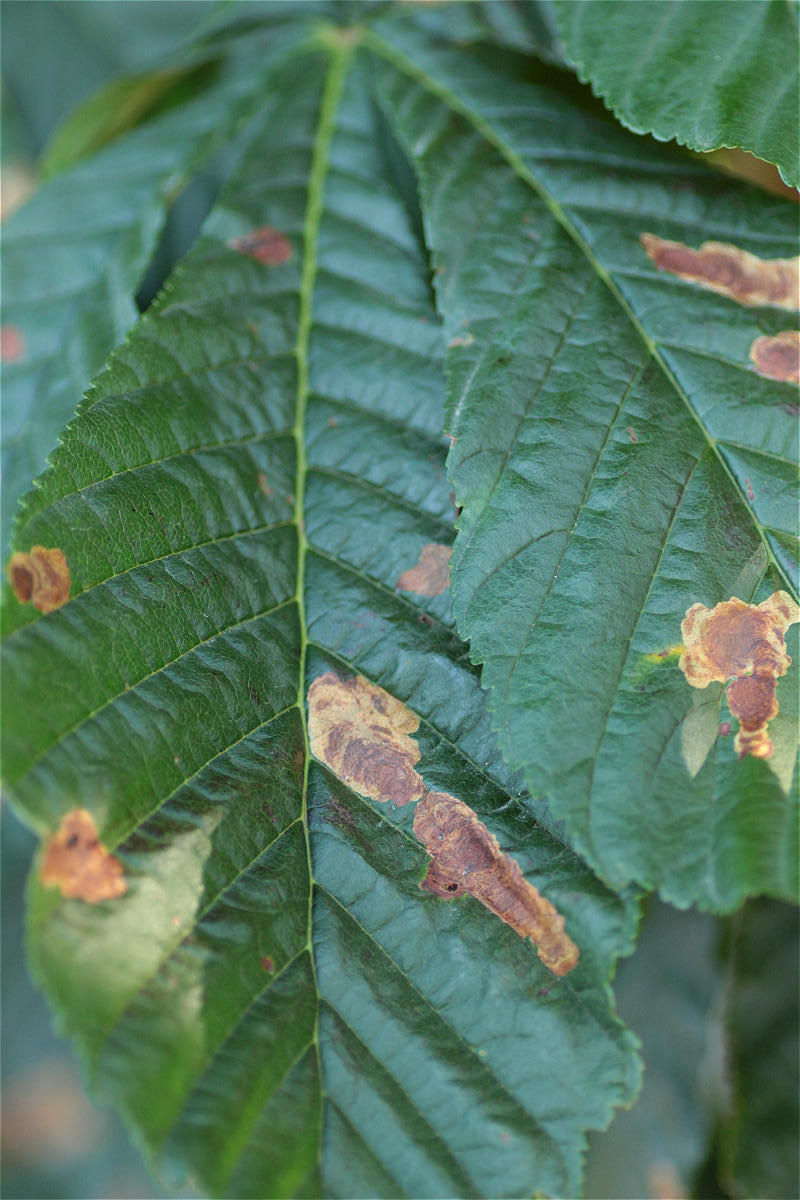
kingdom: Animalia
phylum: Arthropoda
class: Insecta
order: Lepidoptera
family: Gracillariidae
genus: Cameraria
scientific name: Cameraria ohridella
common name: Horse-chestnut leaf-miner
